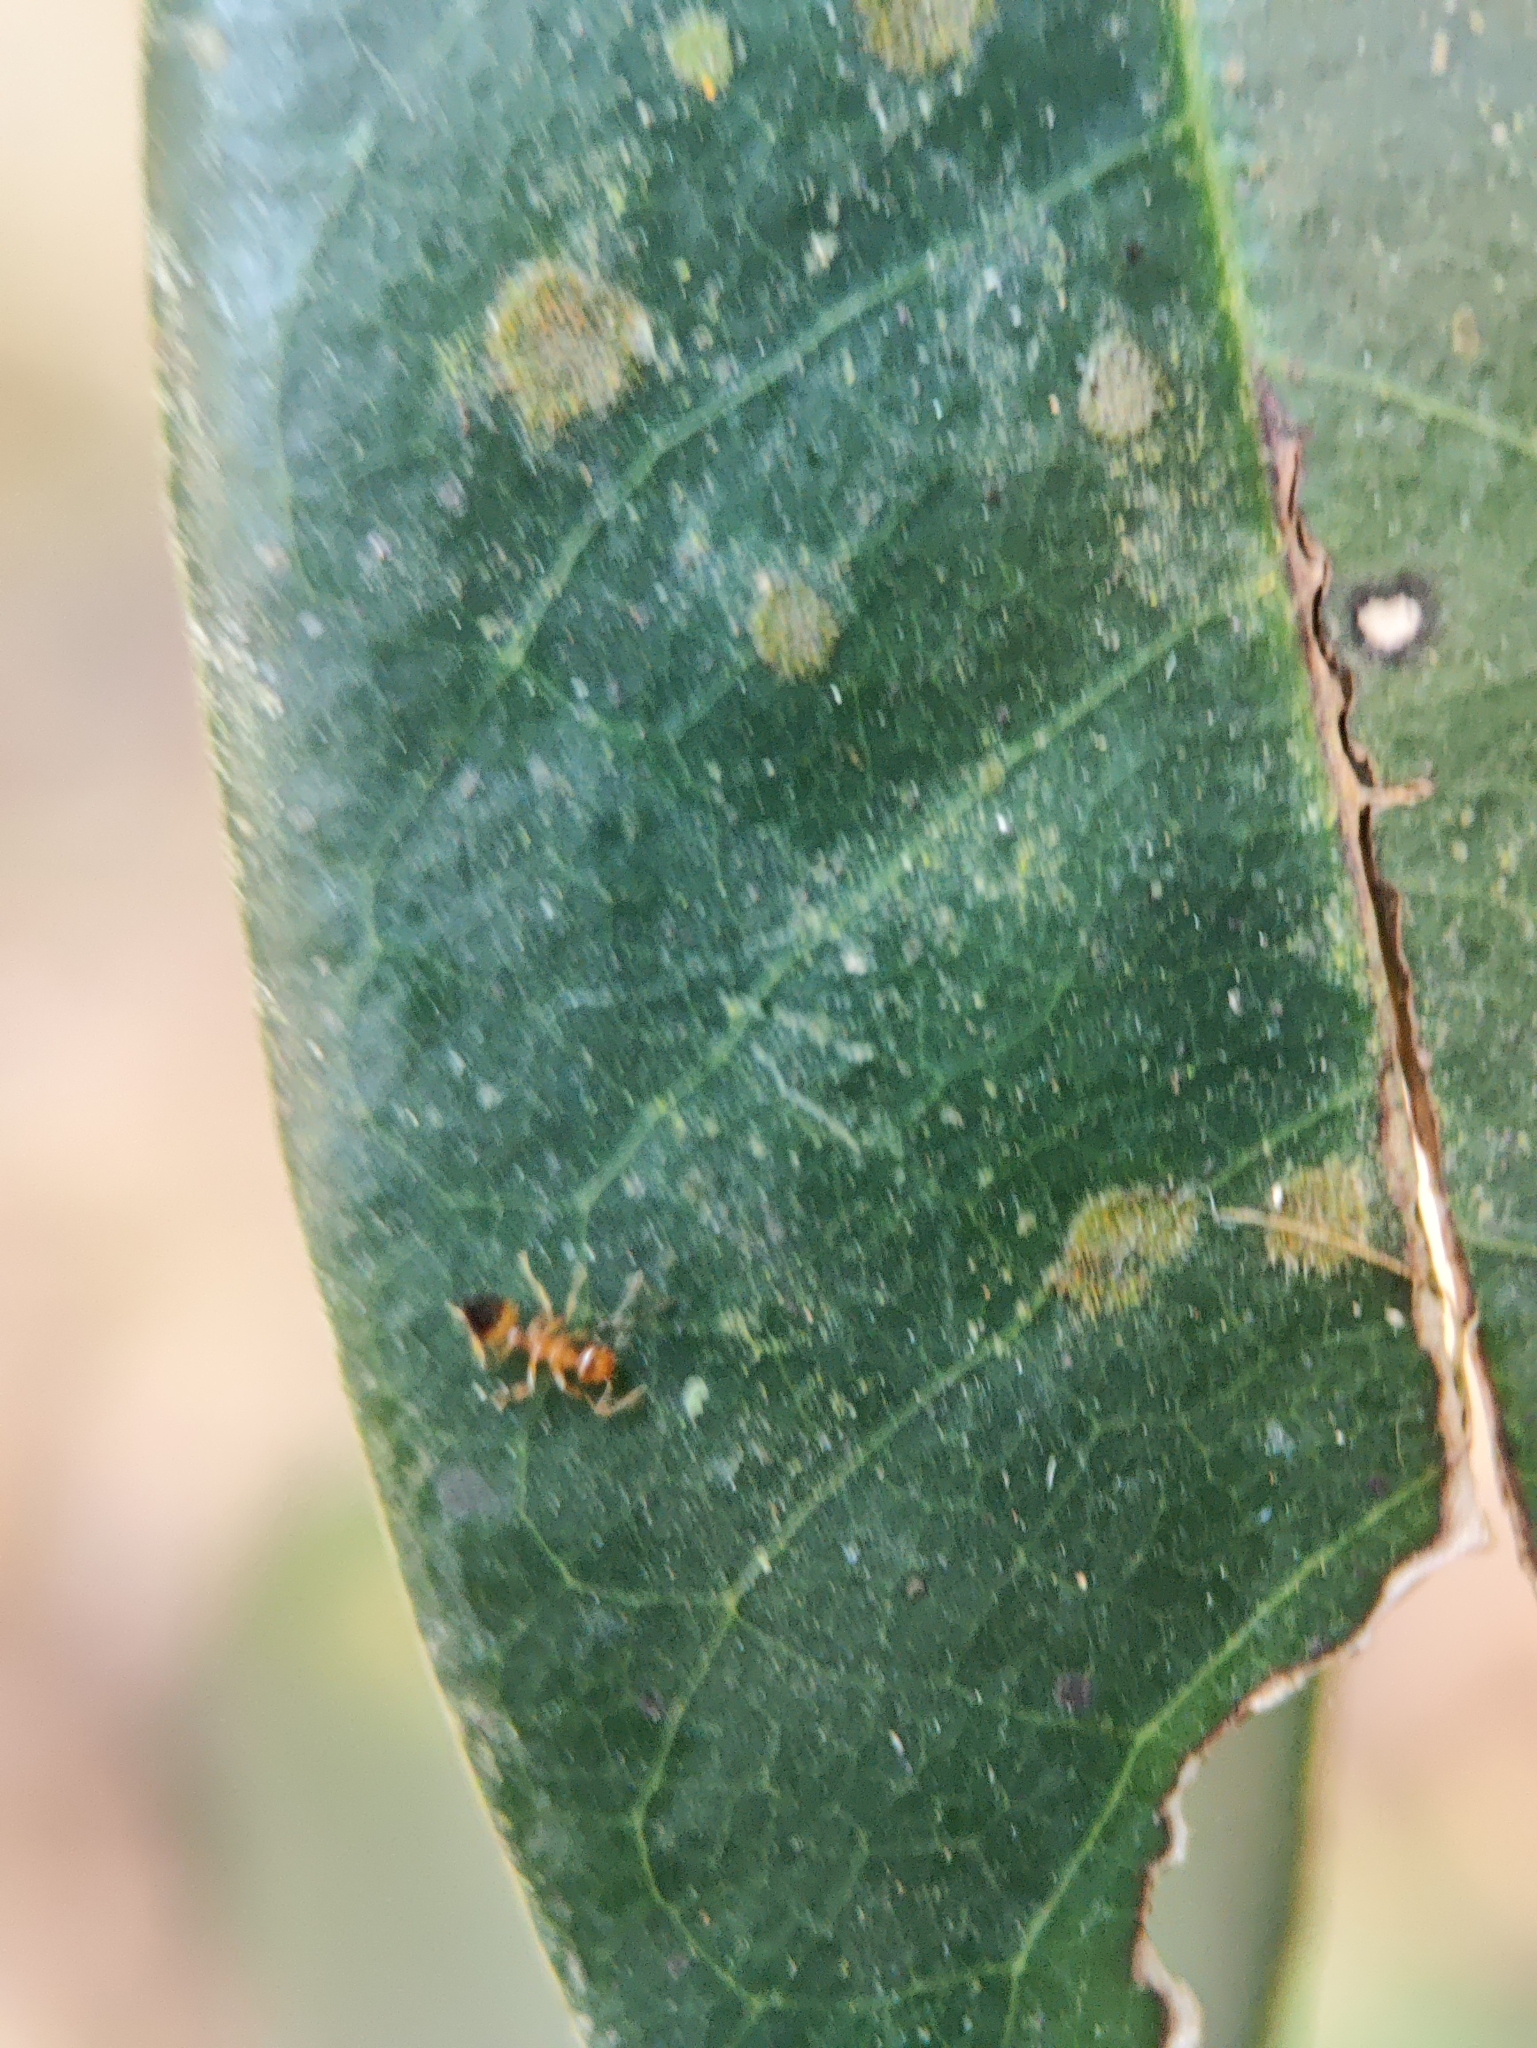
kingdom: Animalia
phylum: Arthropoda
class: Insecta
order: Hymenoptera
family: Formicidae
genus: Crematogaster
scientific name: Crematogaster biroi
